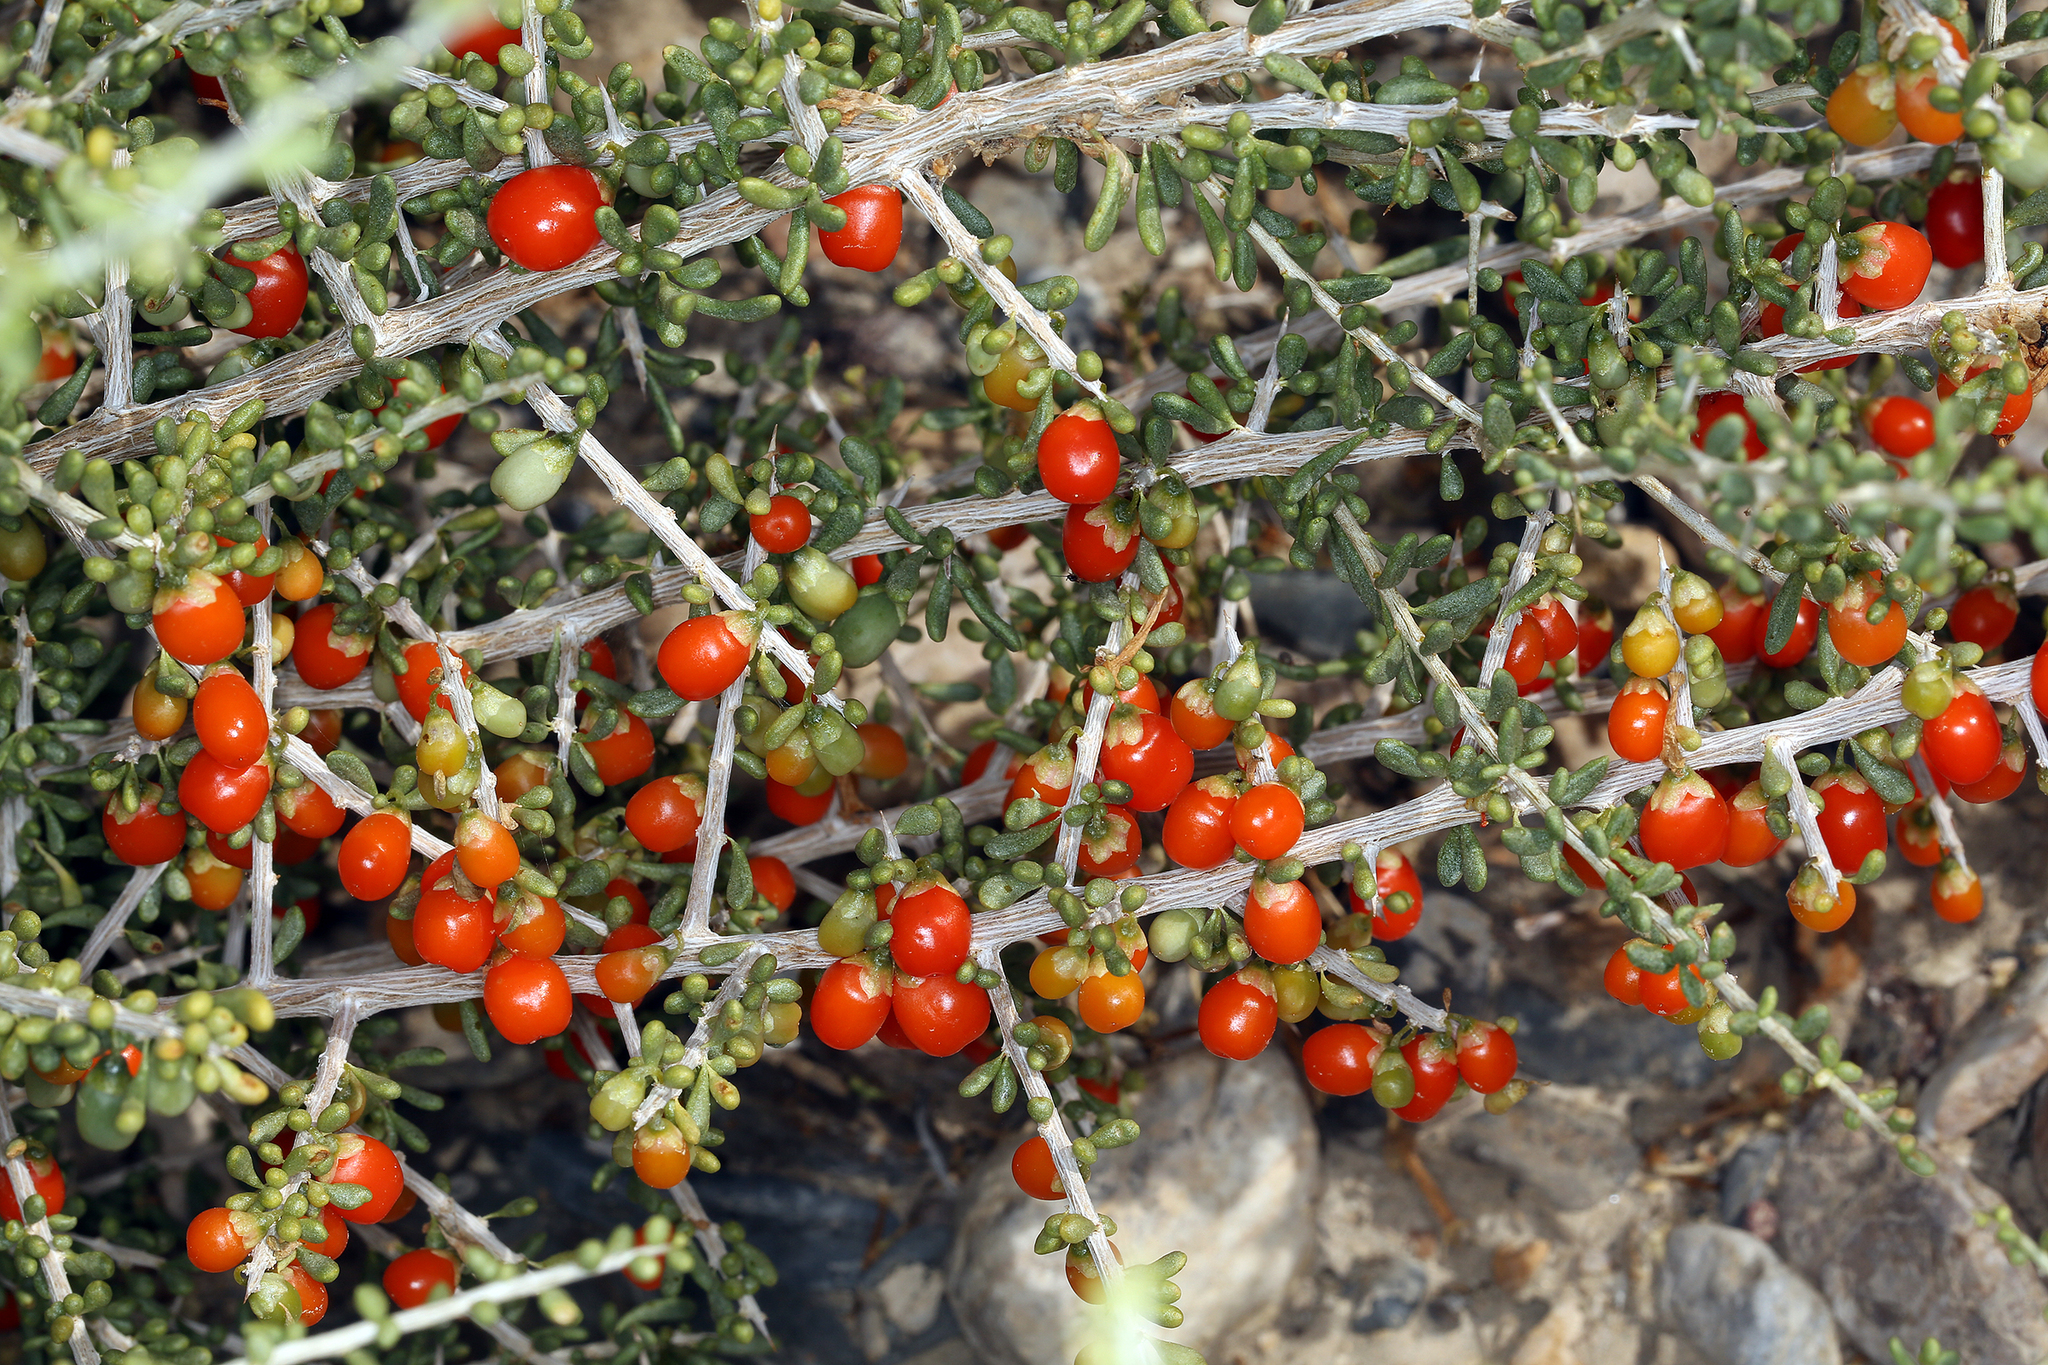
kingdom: Plantae
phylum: Tracheophyta
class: Magnoliopsida
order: Solanales
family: Solanaceae
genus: Lycium
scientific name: Lycium andersonii
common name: Water-jacket
